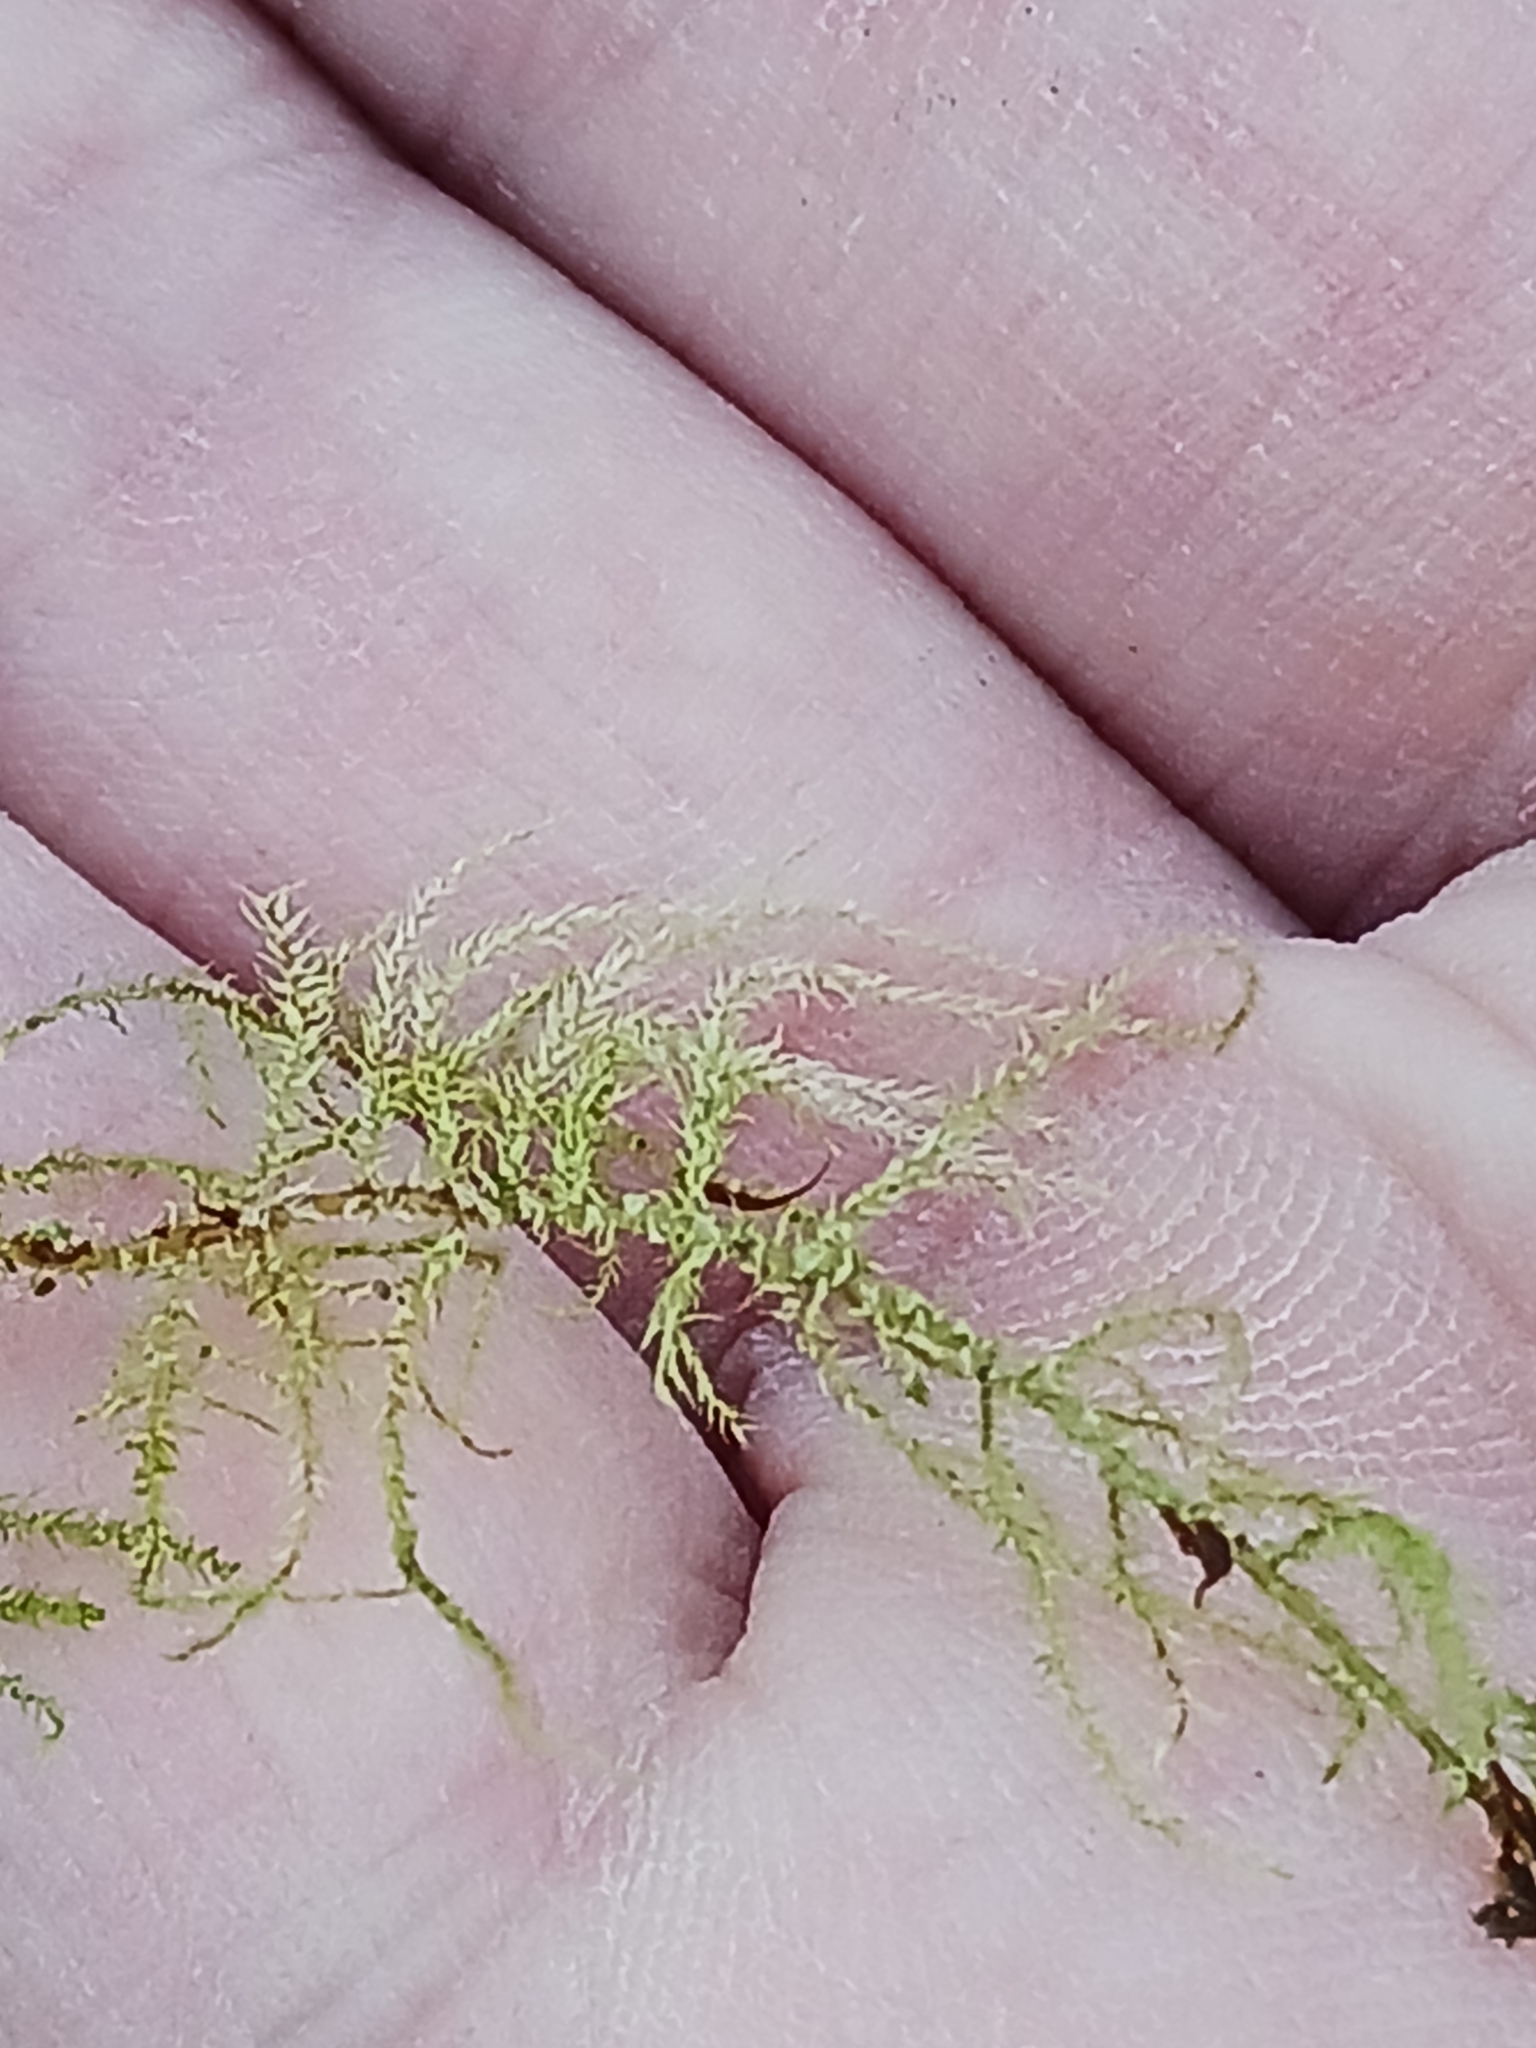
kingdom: Plantae
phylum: Bryophyta
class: Bryopsida
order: Hypnales
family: Brachytheciaceae
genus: Kindbergia
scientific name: Kindbergia praelonga
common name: Slender beaked moss
